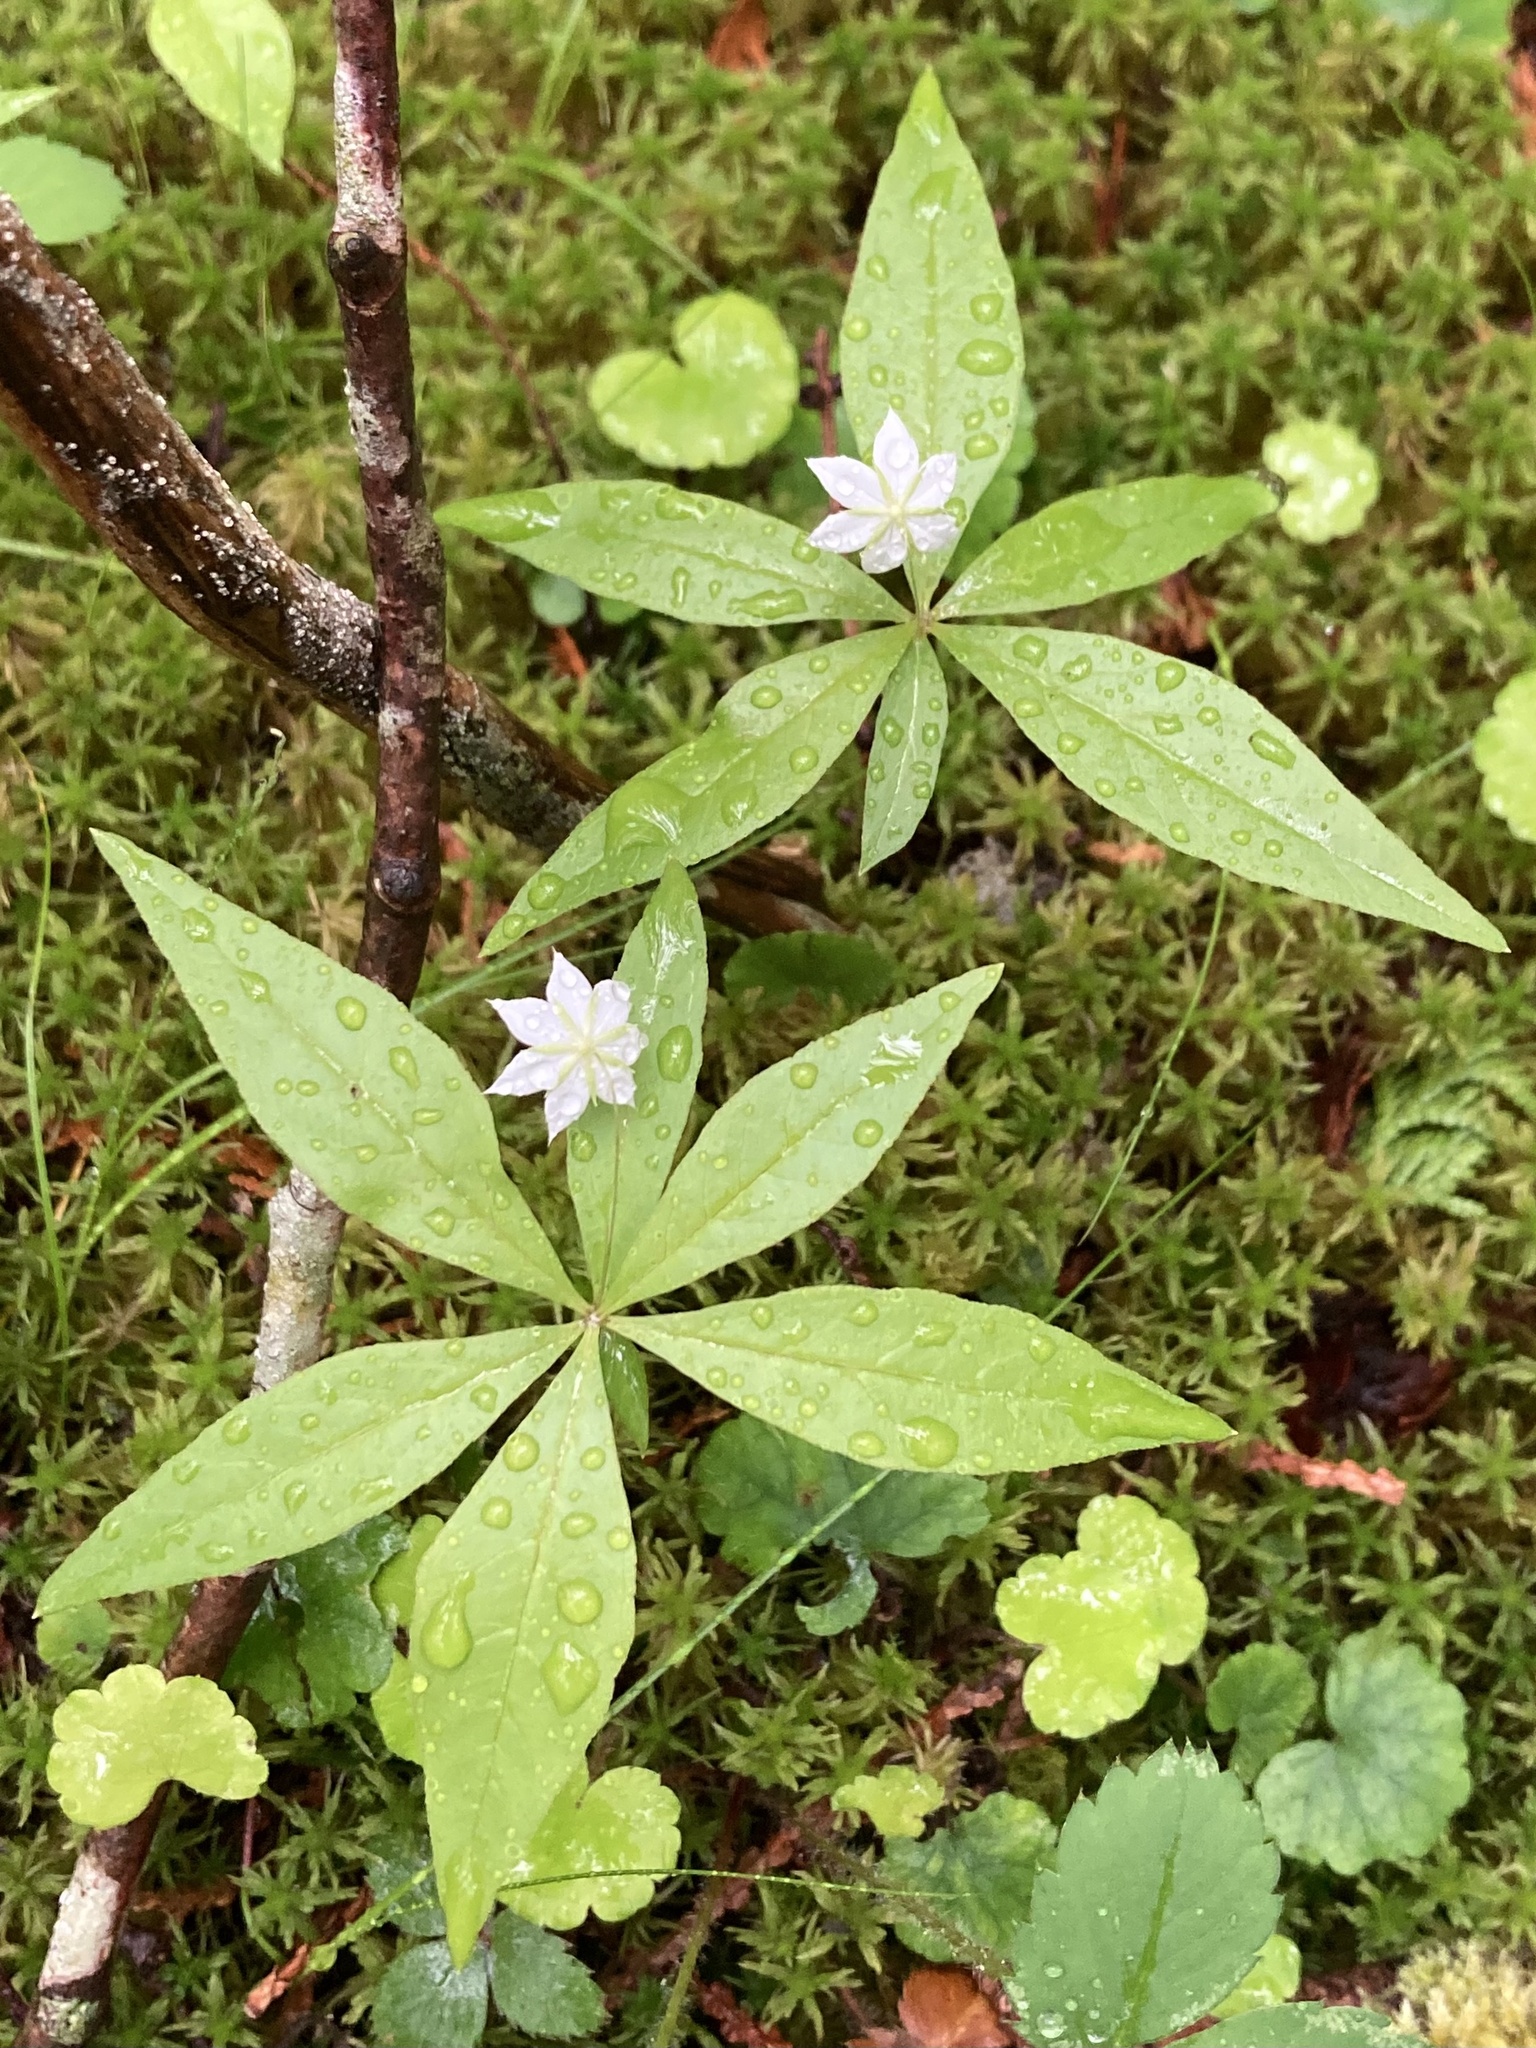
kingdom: Plantae
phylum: Tracheophyta
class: Magnoliopsida
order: Ericales
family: Primulaceae
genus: Lysimachia
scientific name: Lysimachia borealis
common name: American starflower
